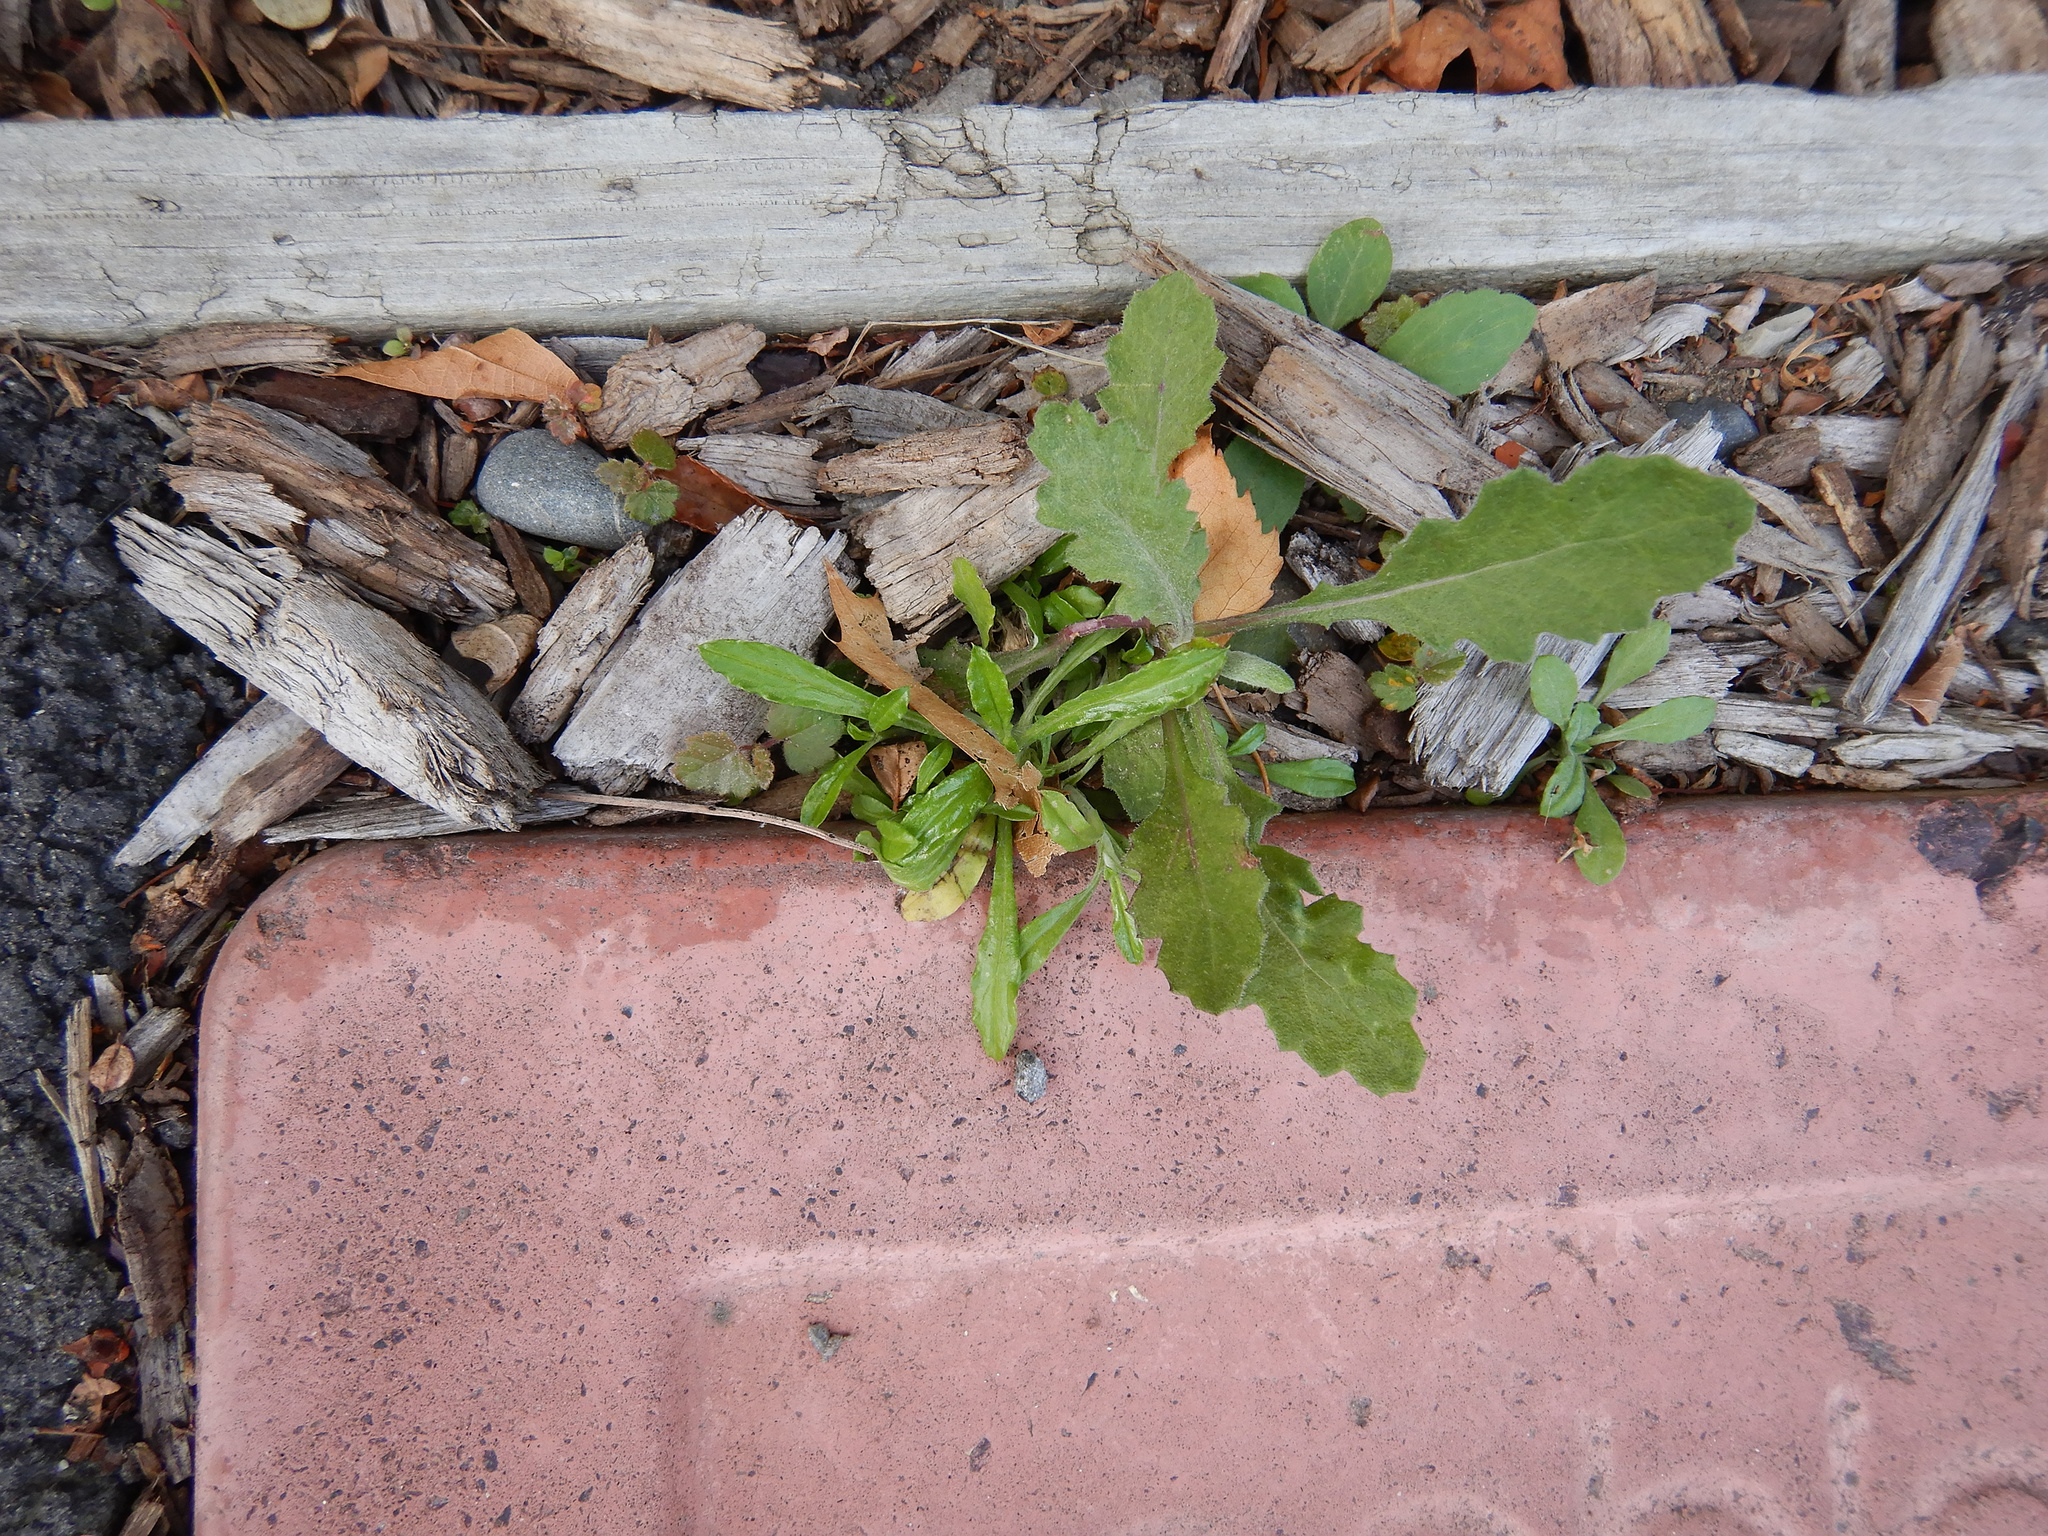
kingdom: Plantae
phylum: Tracheophyta
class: Magnoliopsida
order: Asterales
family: Asteraceae
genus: Senecio
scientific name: Senecio glomeratus
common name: Cutleaf burnweed
